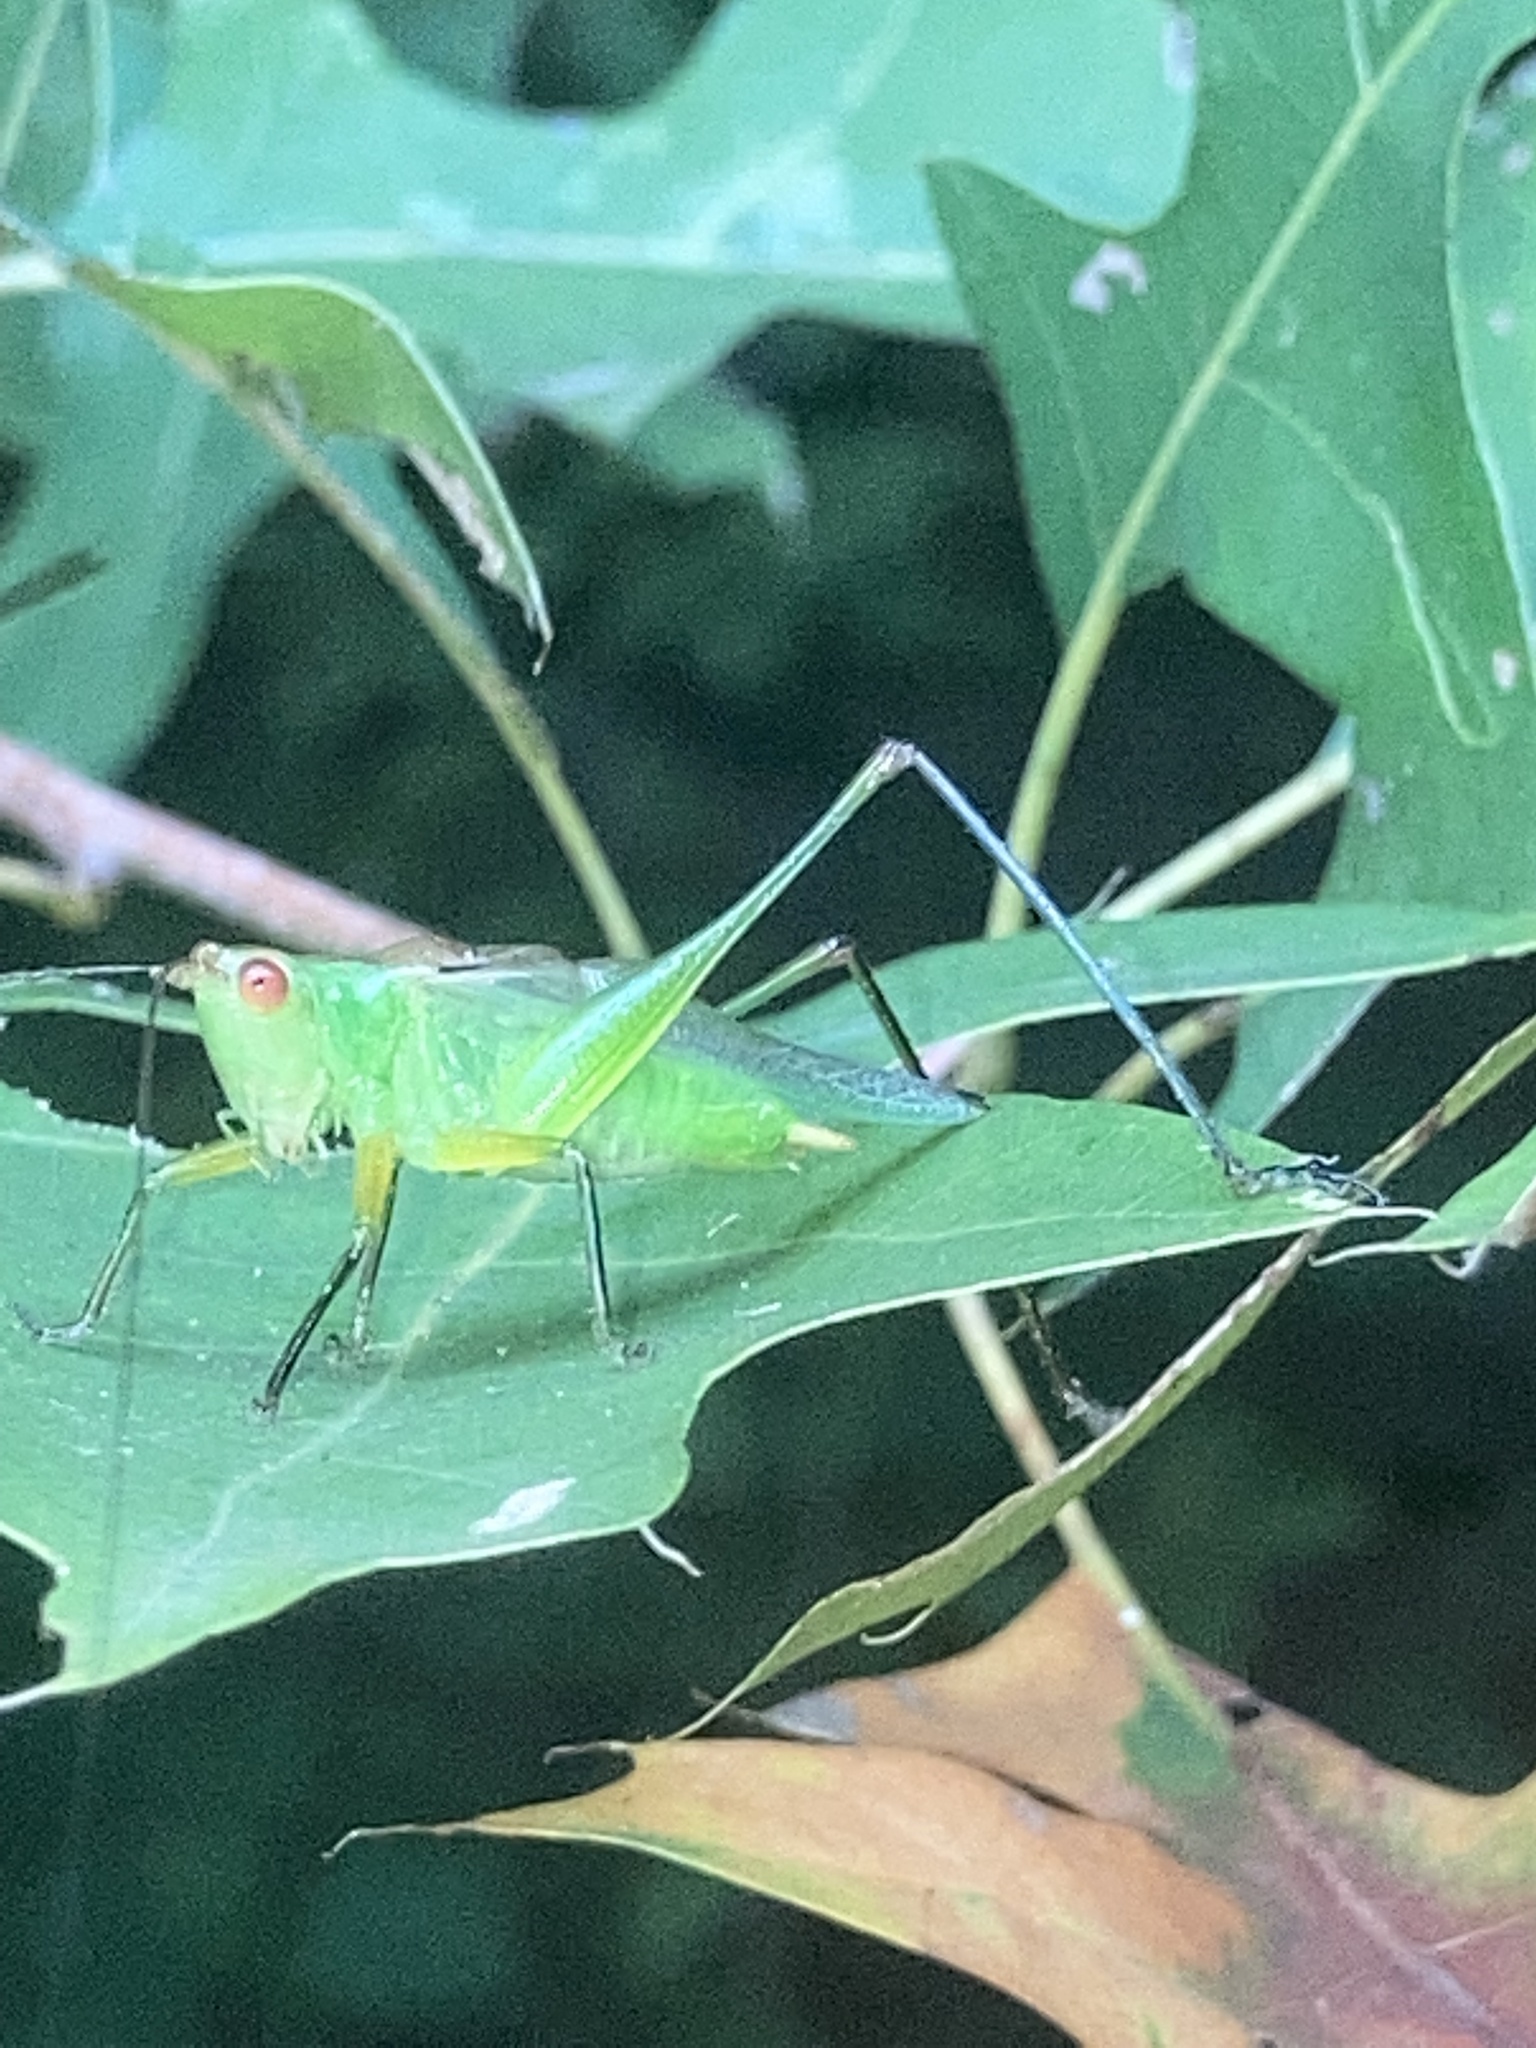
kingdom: Animalia
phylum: Arthropoda
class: Insecta
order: Orthoptera
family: Tettigoniidae
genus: Orchelimum
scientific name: Orchelimum nigripes
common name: Black-legged meadow katydid
